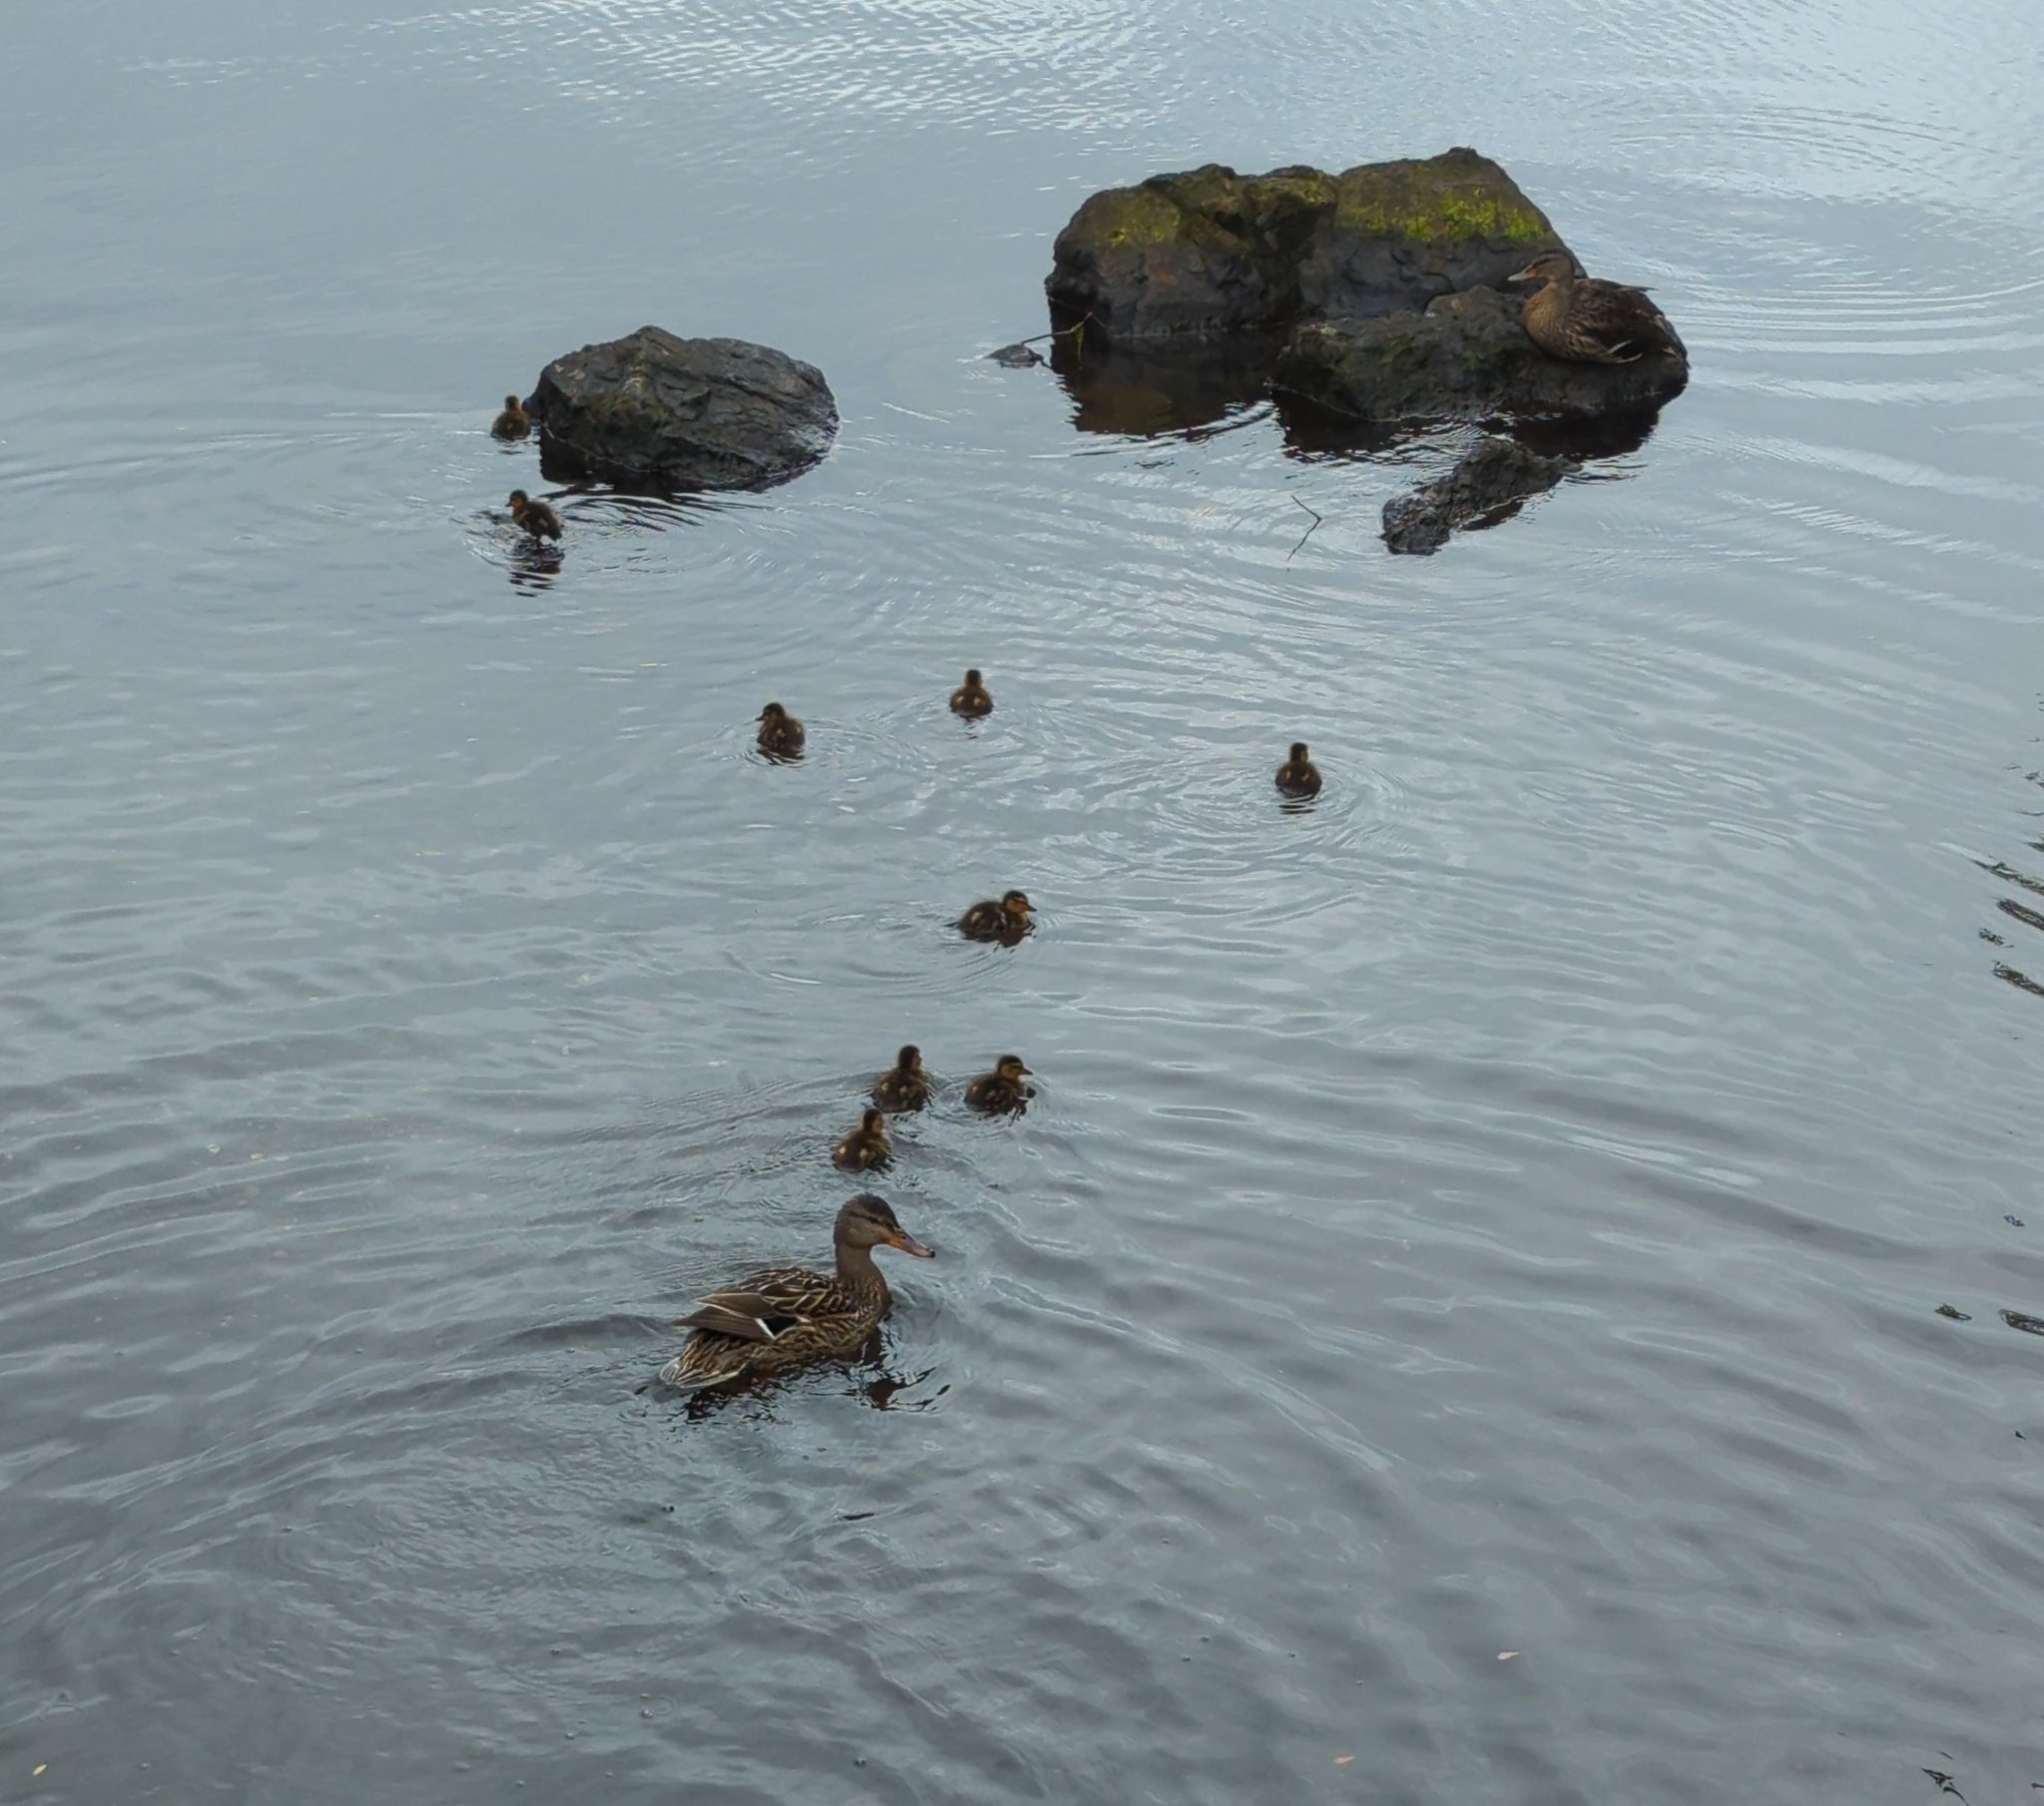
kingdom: Animalia
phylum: Chordata
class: Aves
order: Anseriformes
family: Anatidae
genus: Anas
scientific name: Anas platyrhynchos
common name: Mallard
